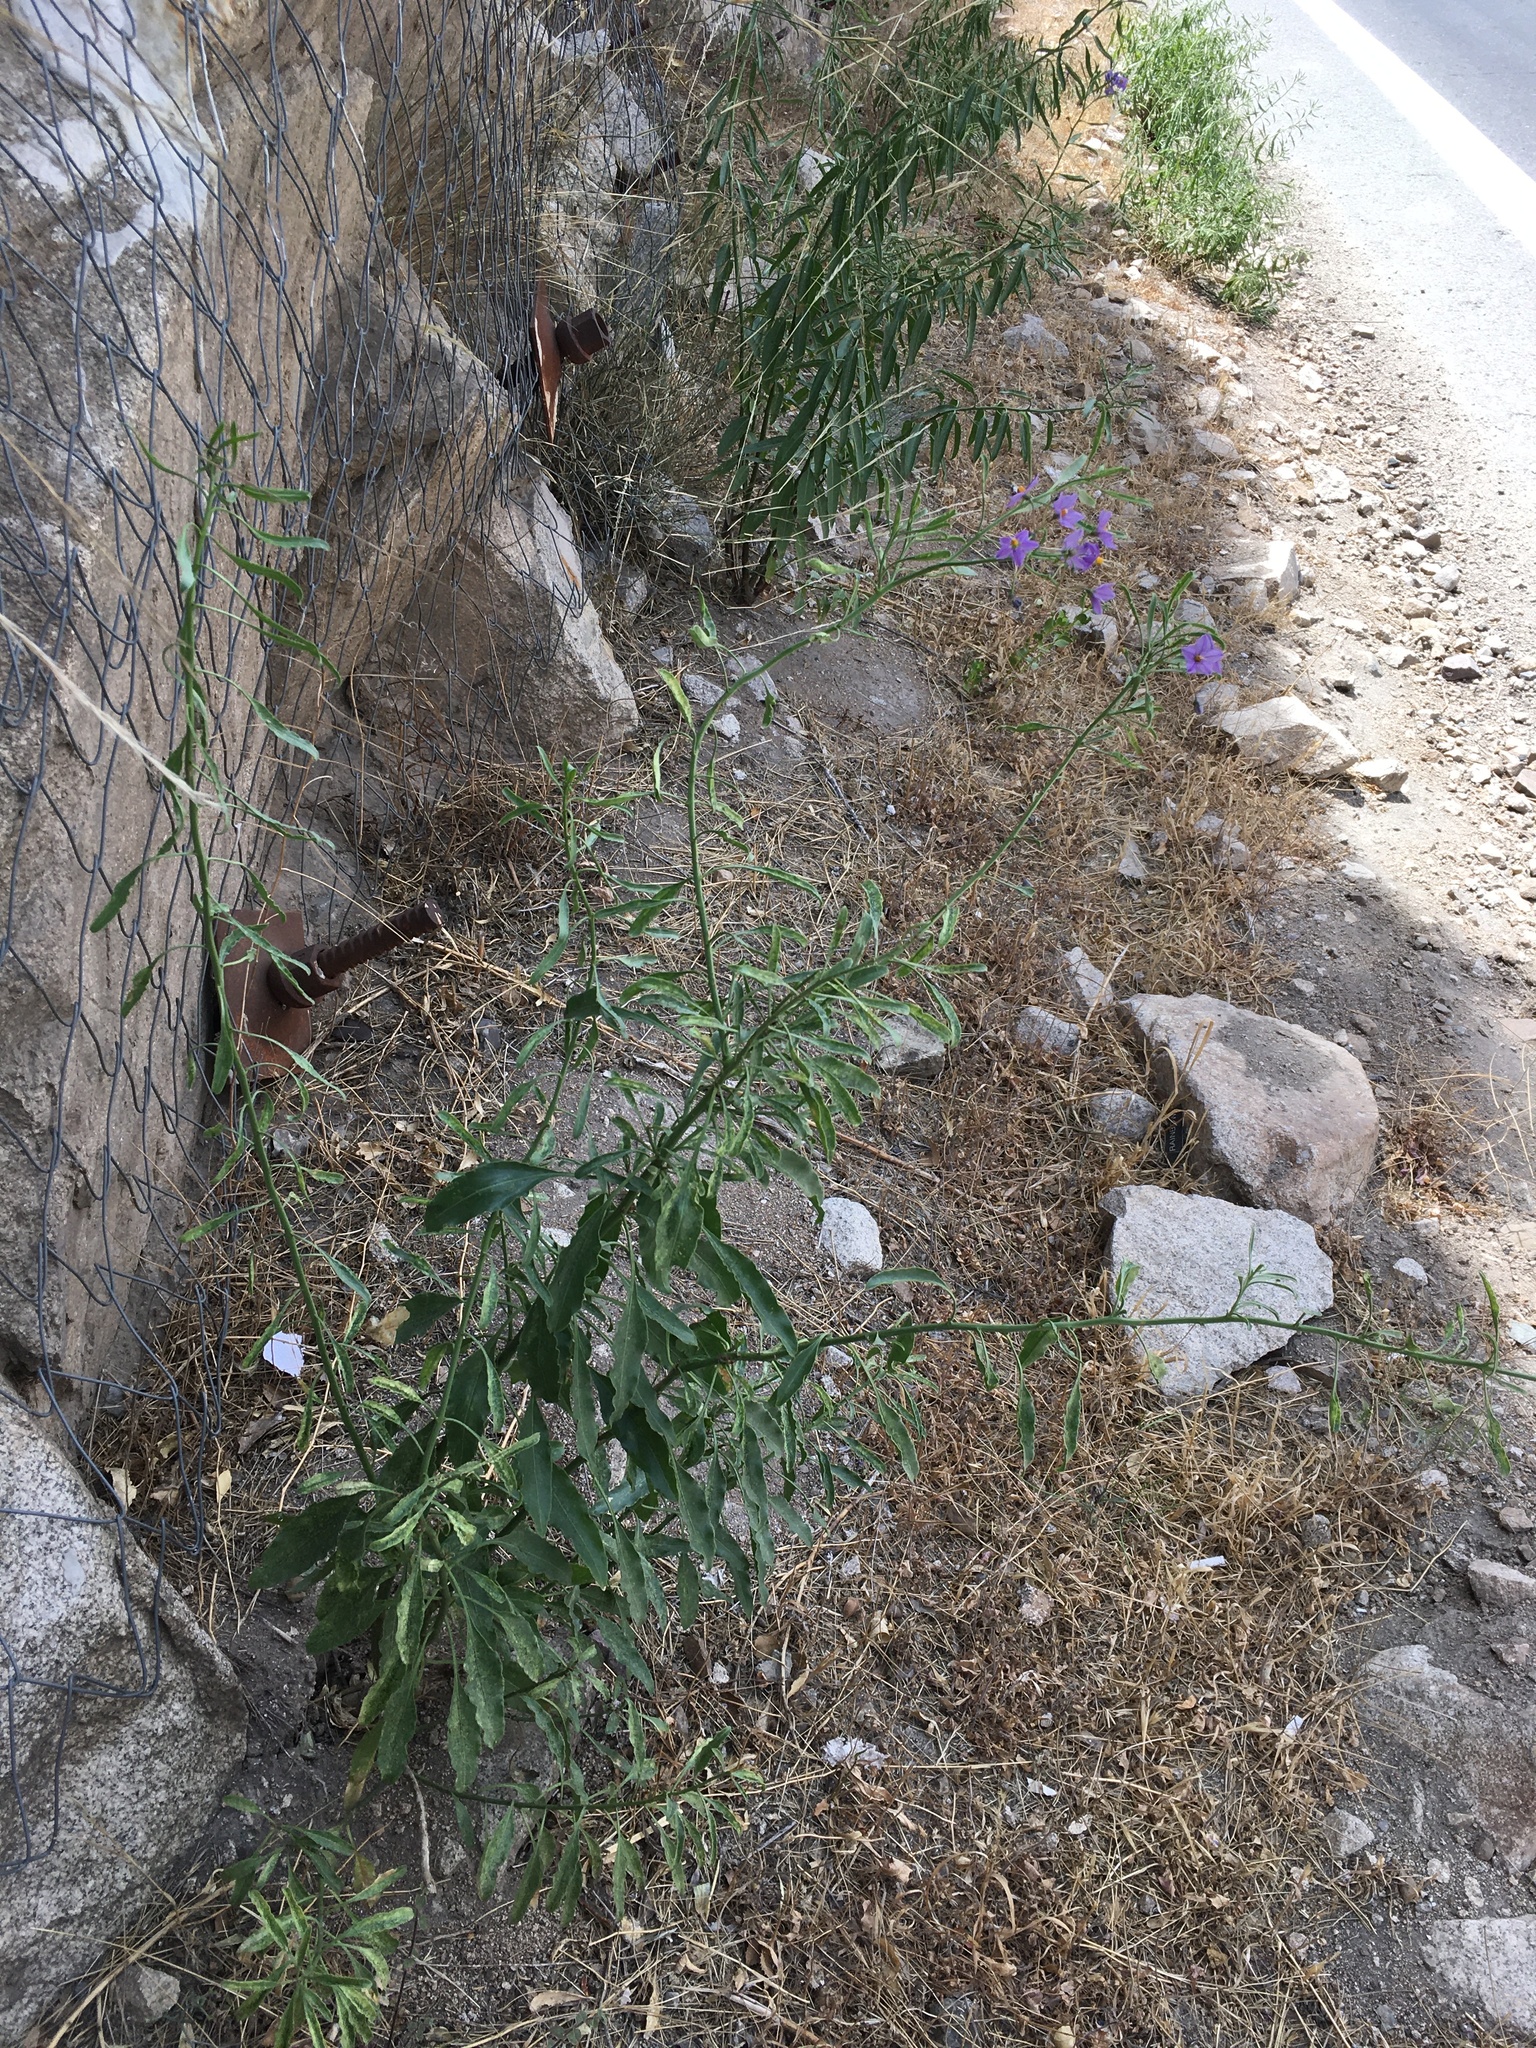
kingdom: Plantae
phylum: Tracheophyta
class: Magnoliopsida
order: Solanales
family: Solanaceae
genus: Solanum
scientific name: Solanum crispum
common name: Chilean nightshade
